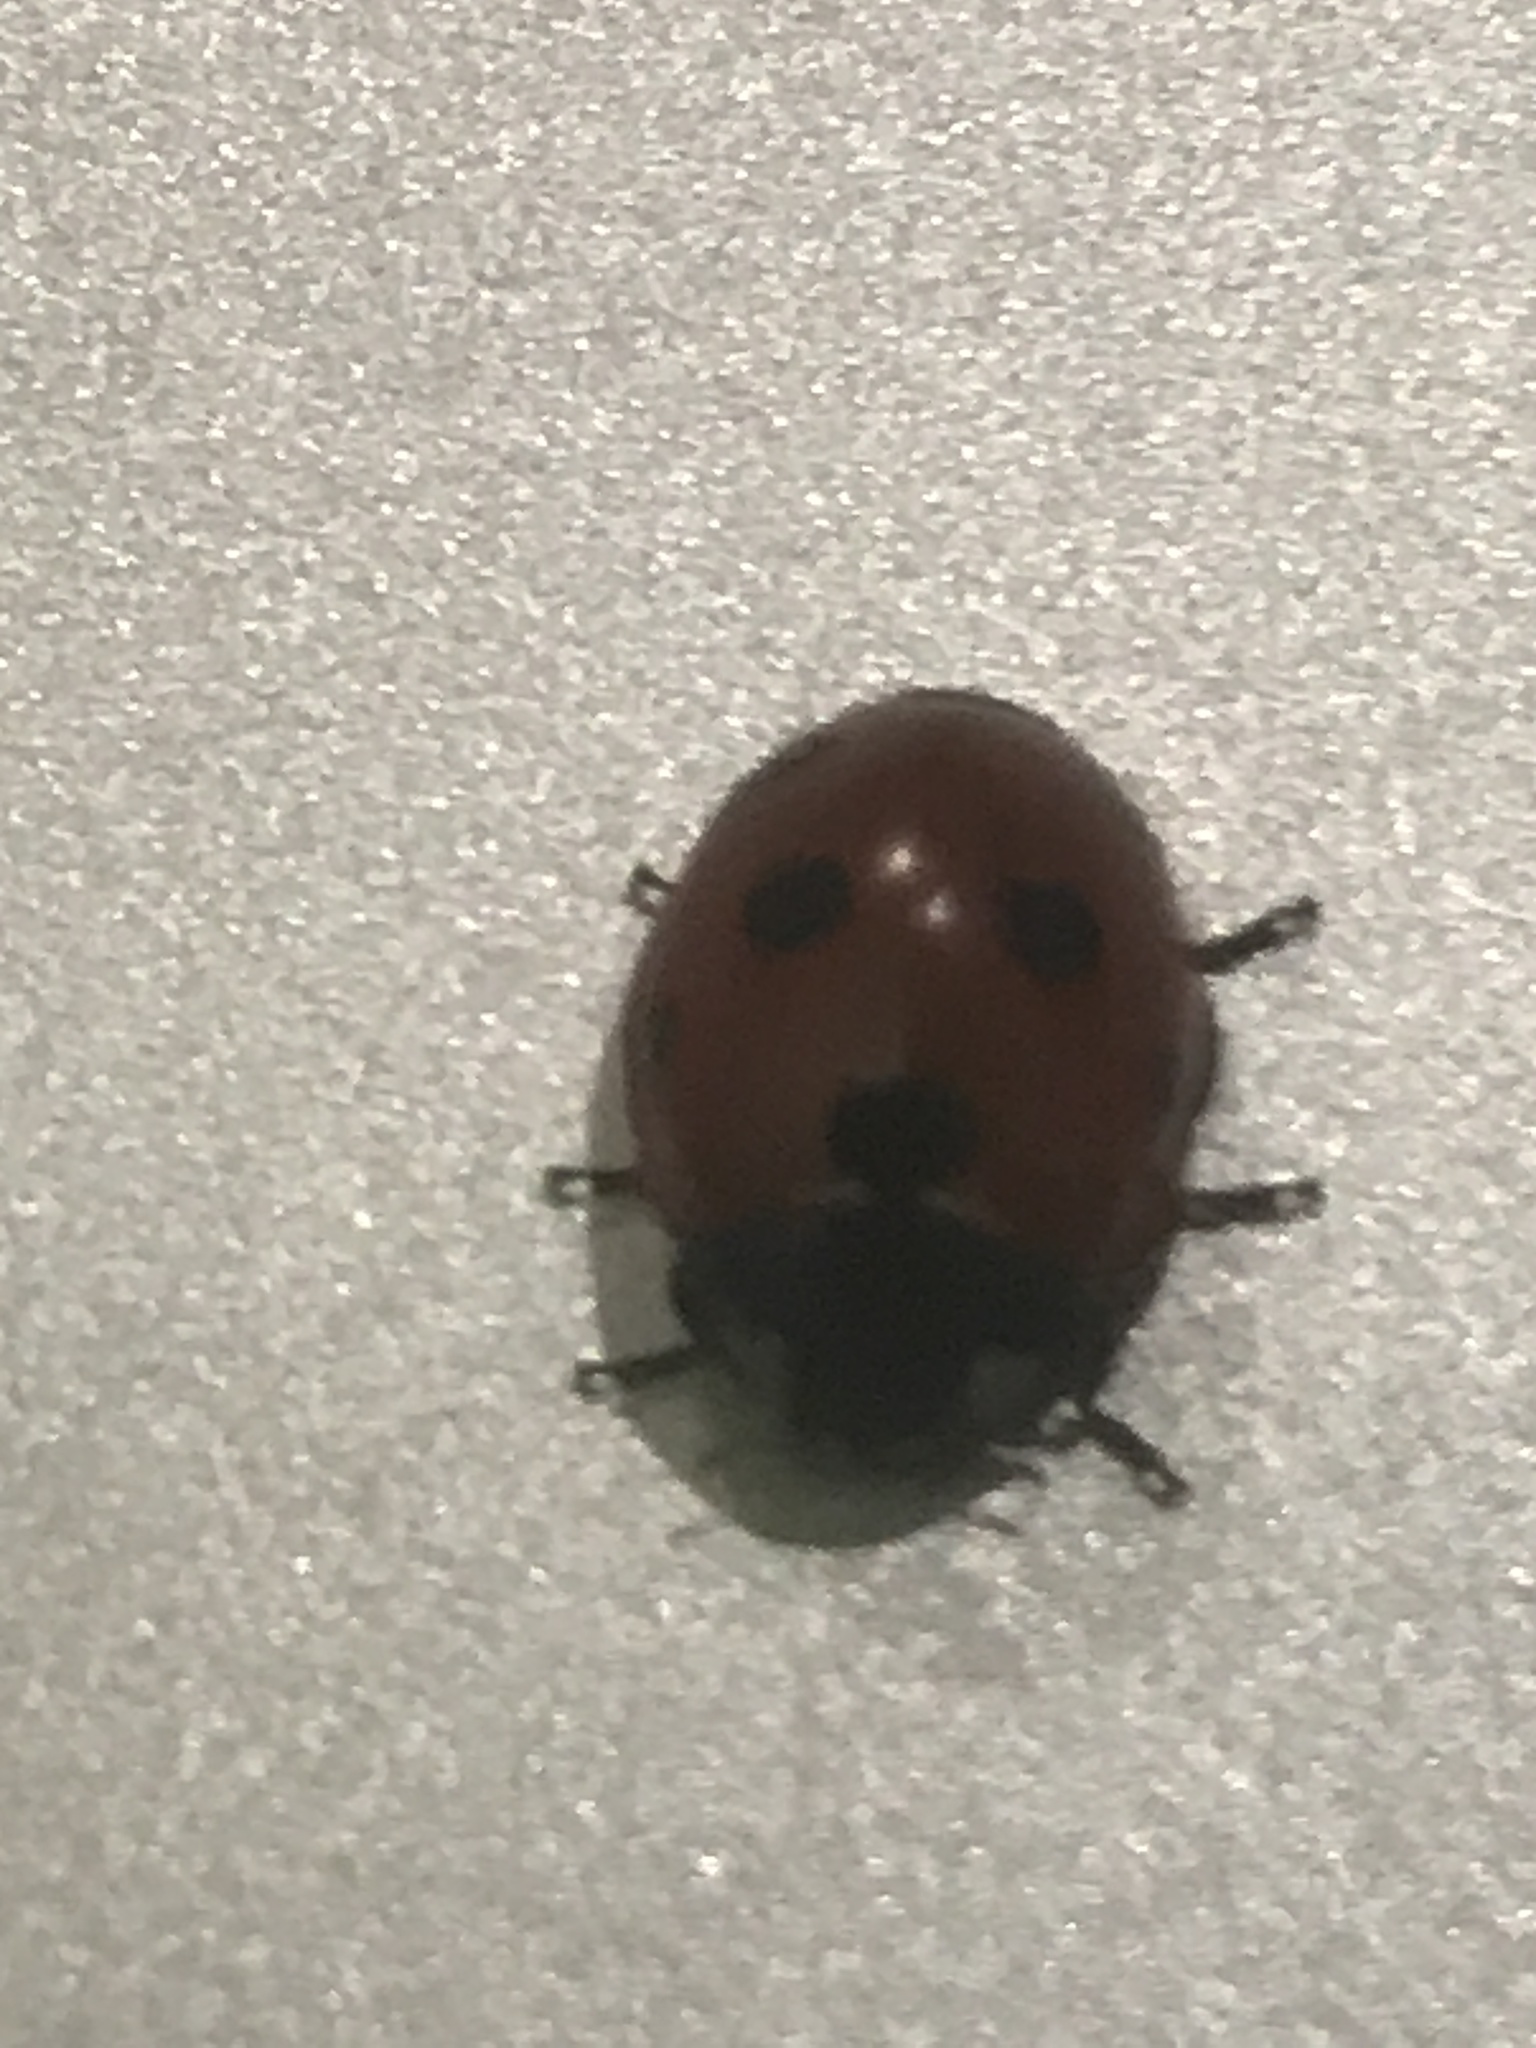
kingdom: Animalia
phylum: Arthropoda
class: Insecta
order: Coleoptera
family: Coccinellidae
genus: Coccinella
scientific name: Coccinella septempunctata
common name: Sevenspotted lady beetle
